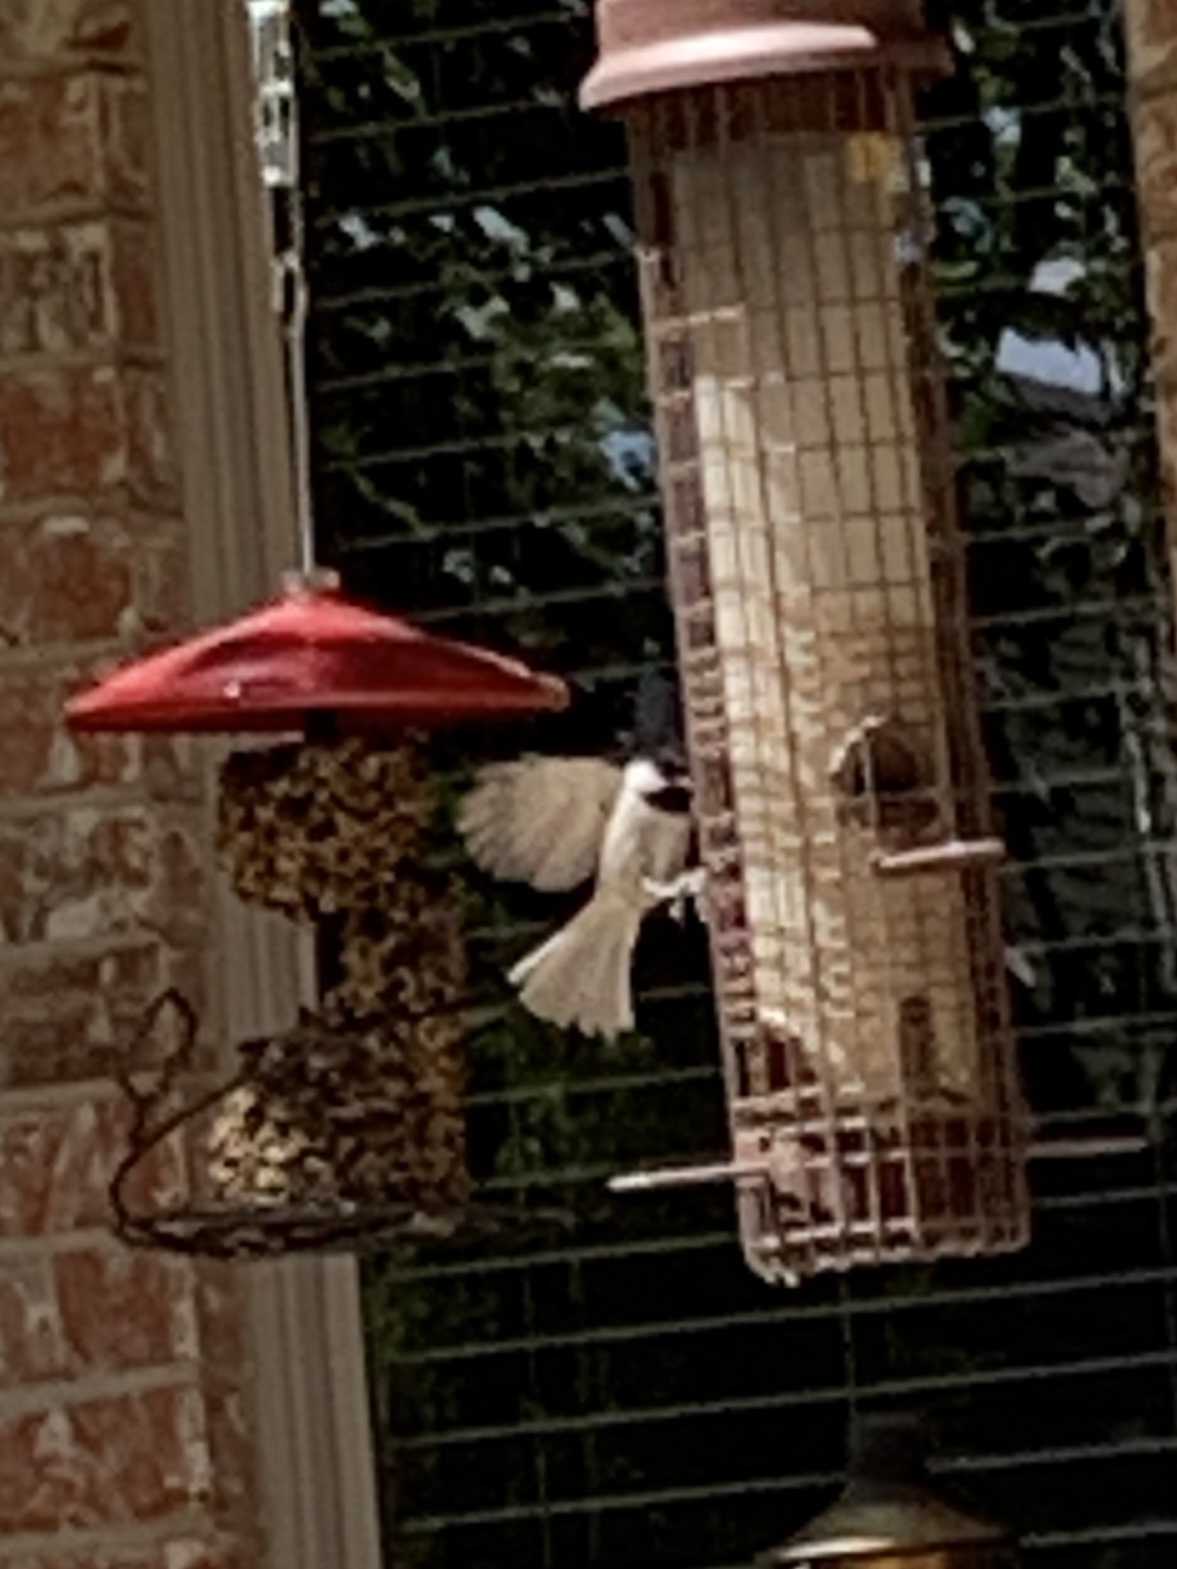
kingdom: Animalia
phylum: Chordata
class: Aves
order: Passeriformes
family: Paridae
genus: Poecile
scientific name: Poecile carolinensis
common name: Carolina chickadee
